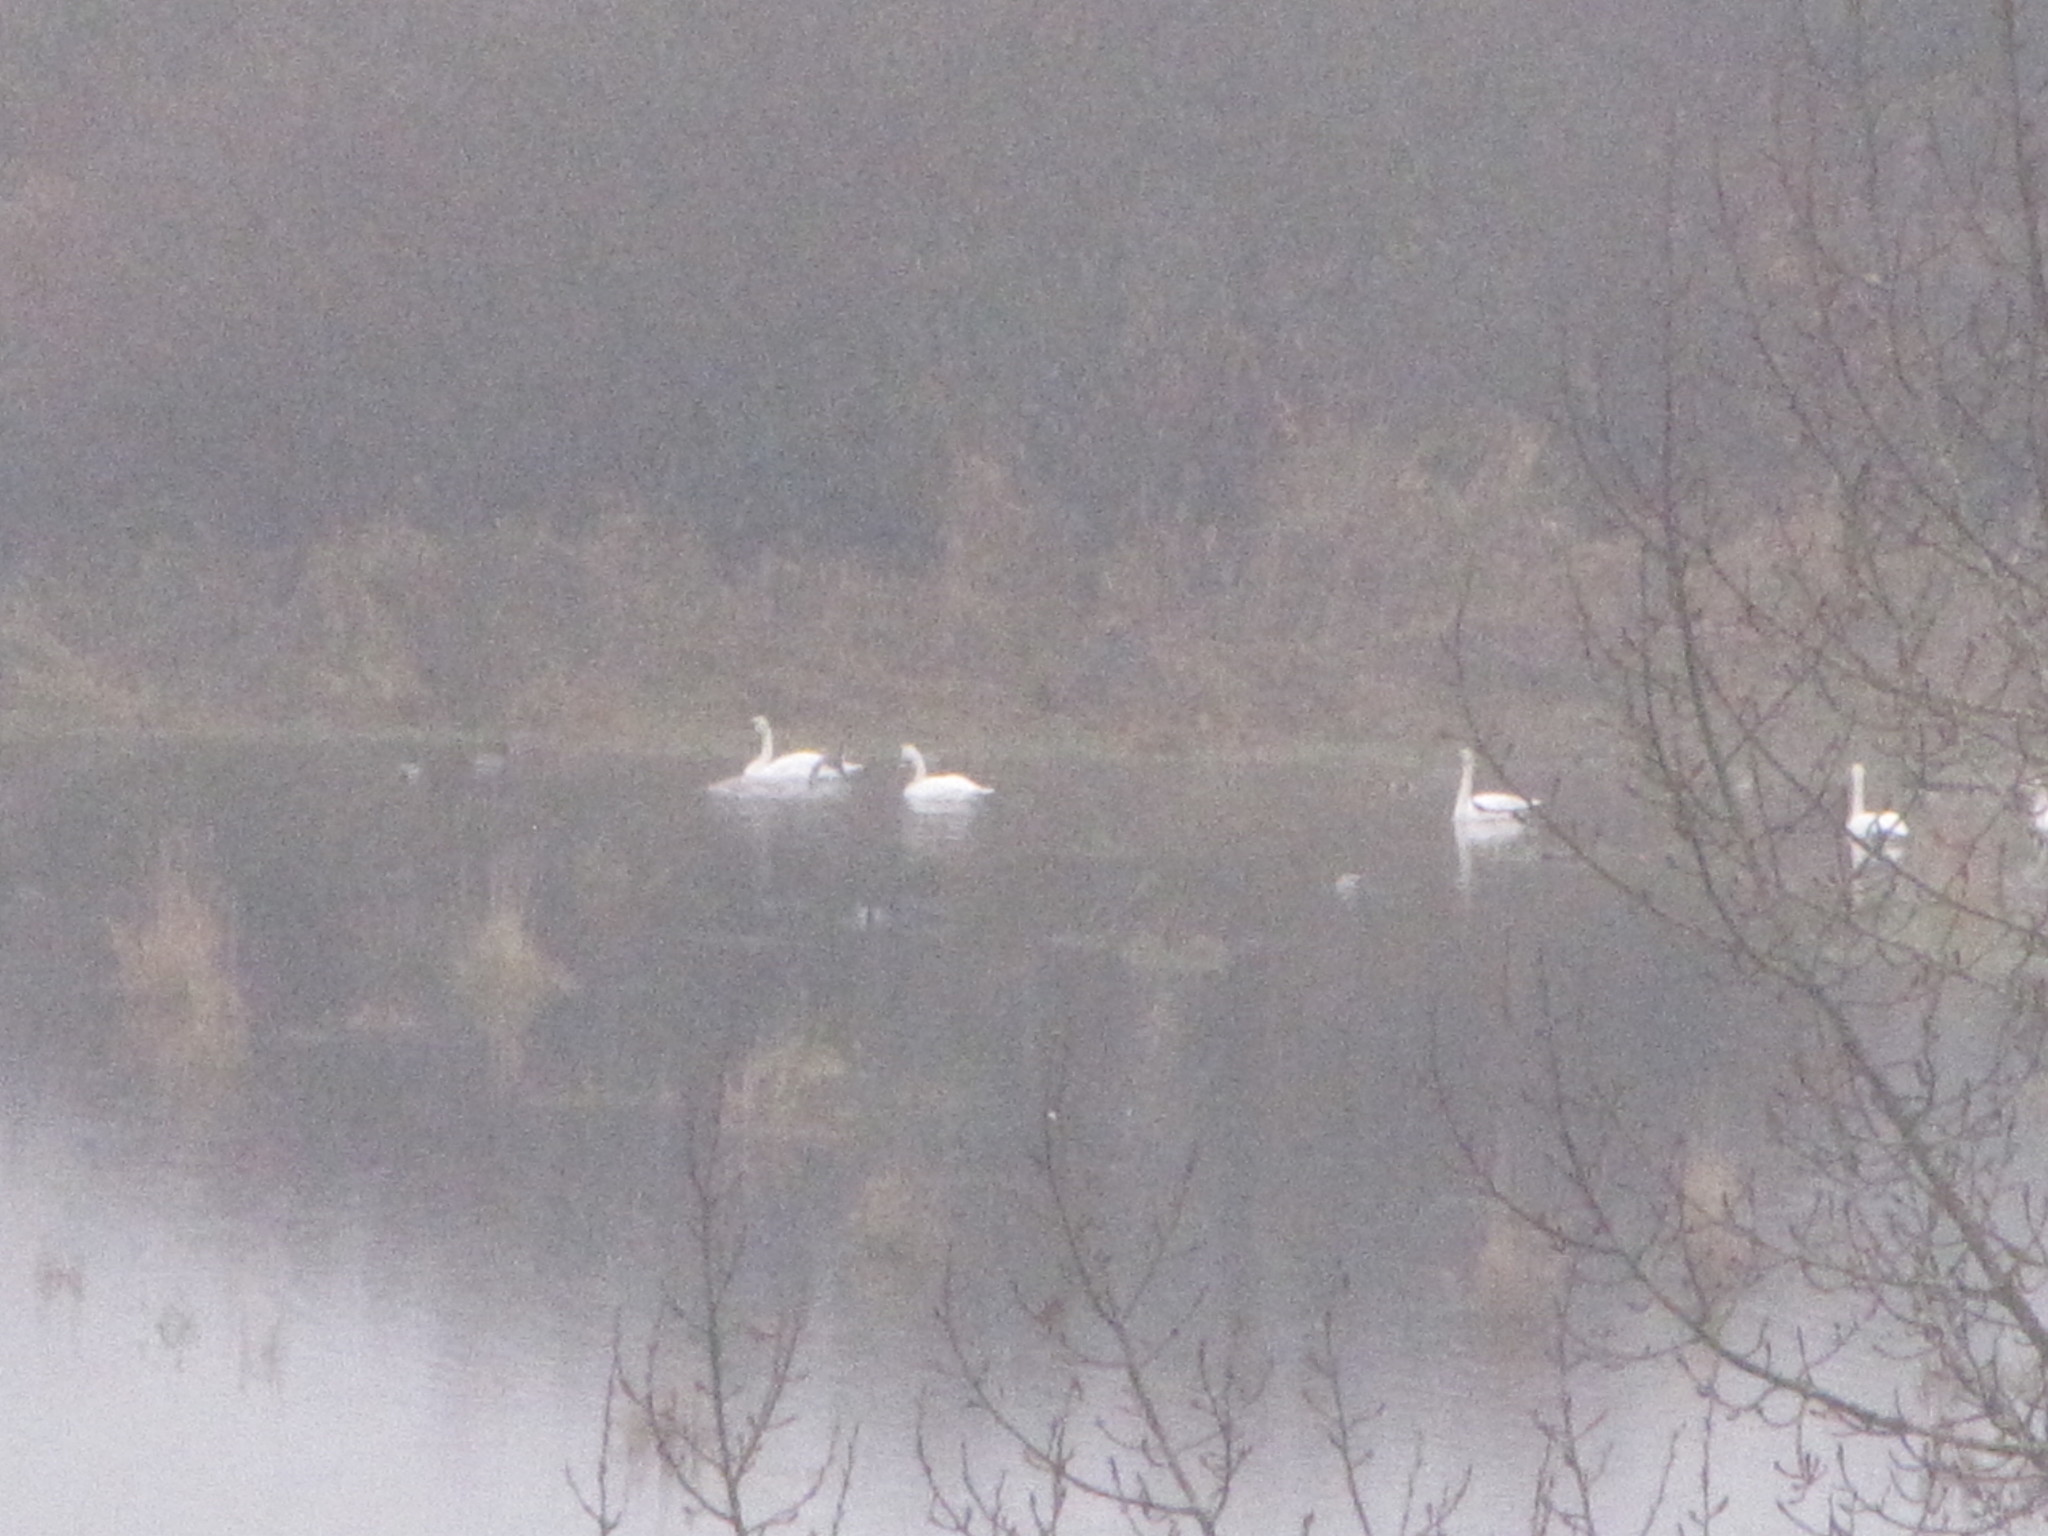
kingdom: Animalia
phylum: Chordata
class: Aves
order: Anseriformes
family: Anatidae
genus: Cygnus
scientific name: Cygnus buccinator
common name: Trumpeter swan
